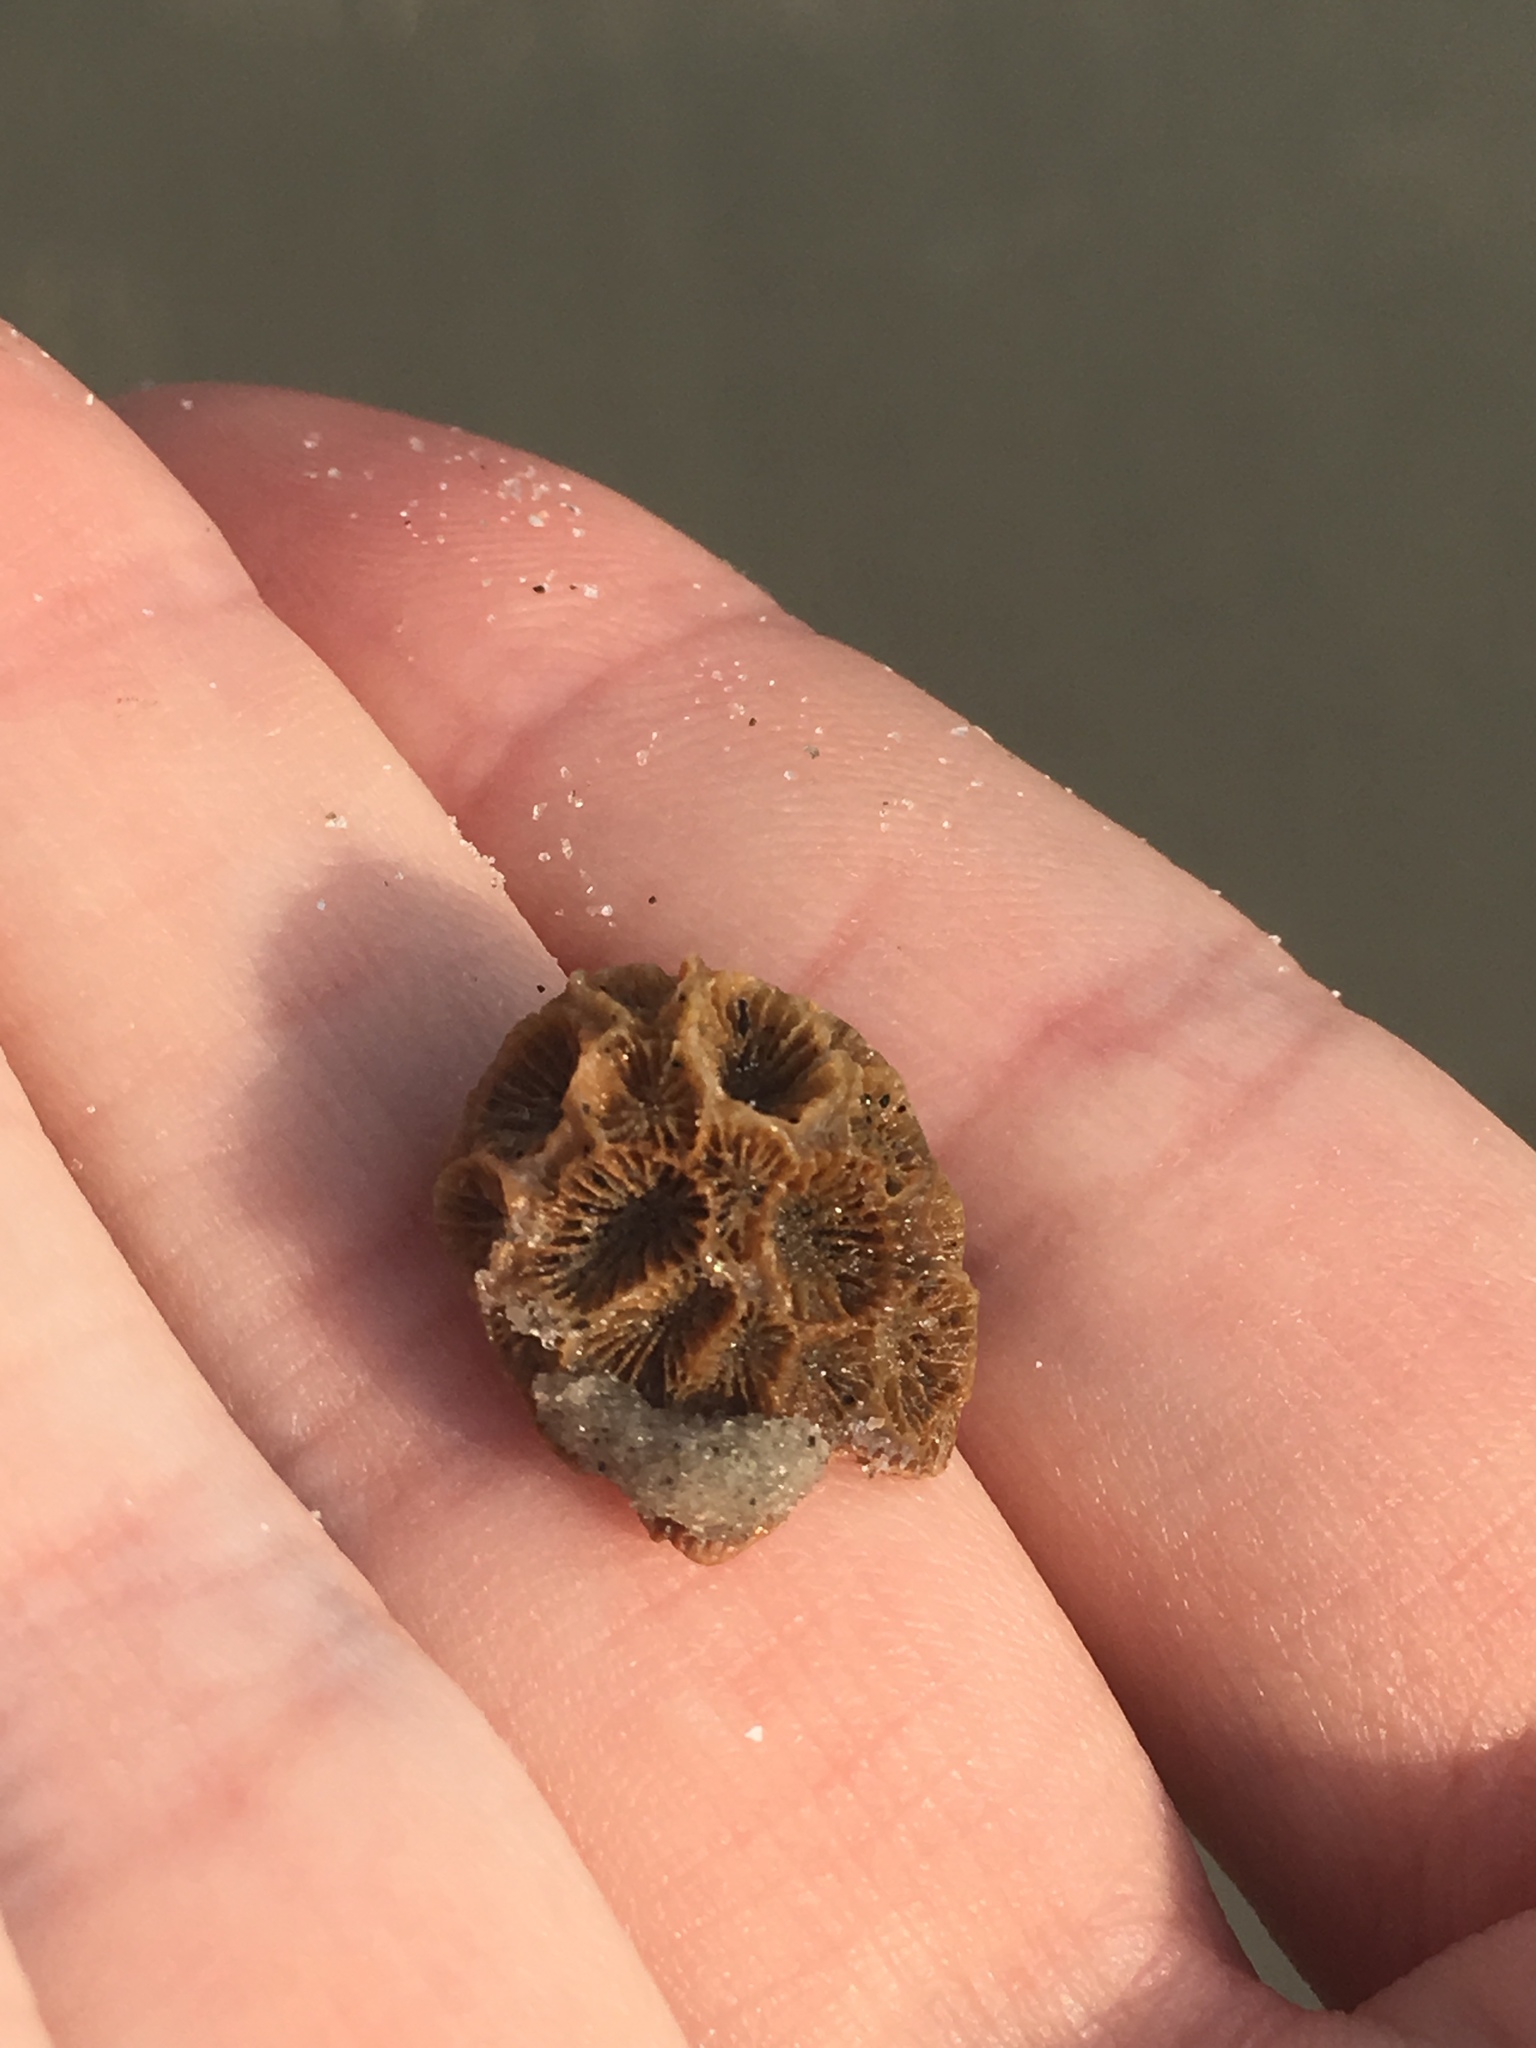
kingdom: Animalia
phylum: Cnidaria
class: Anthozoa
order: Scleractinia
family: Astrangiidae
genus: Astrangia
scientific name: Astrangia poculata
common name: Northern star coral
